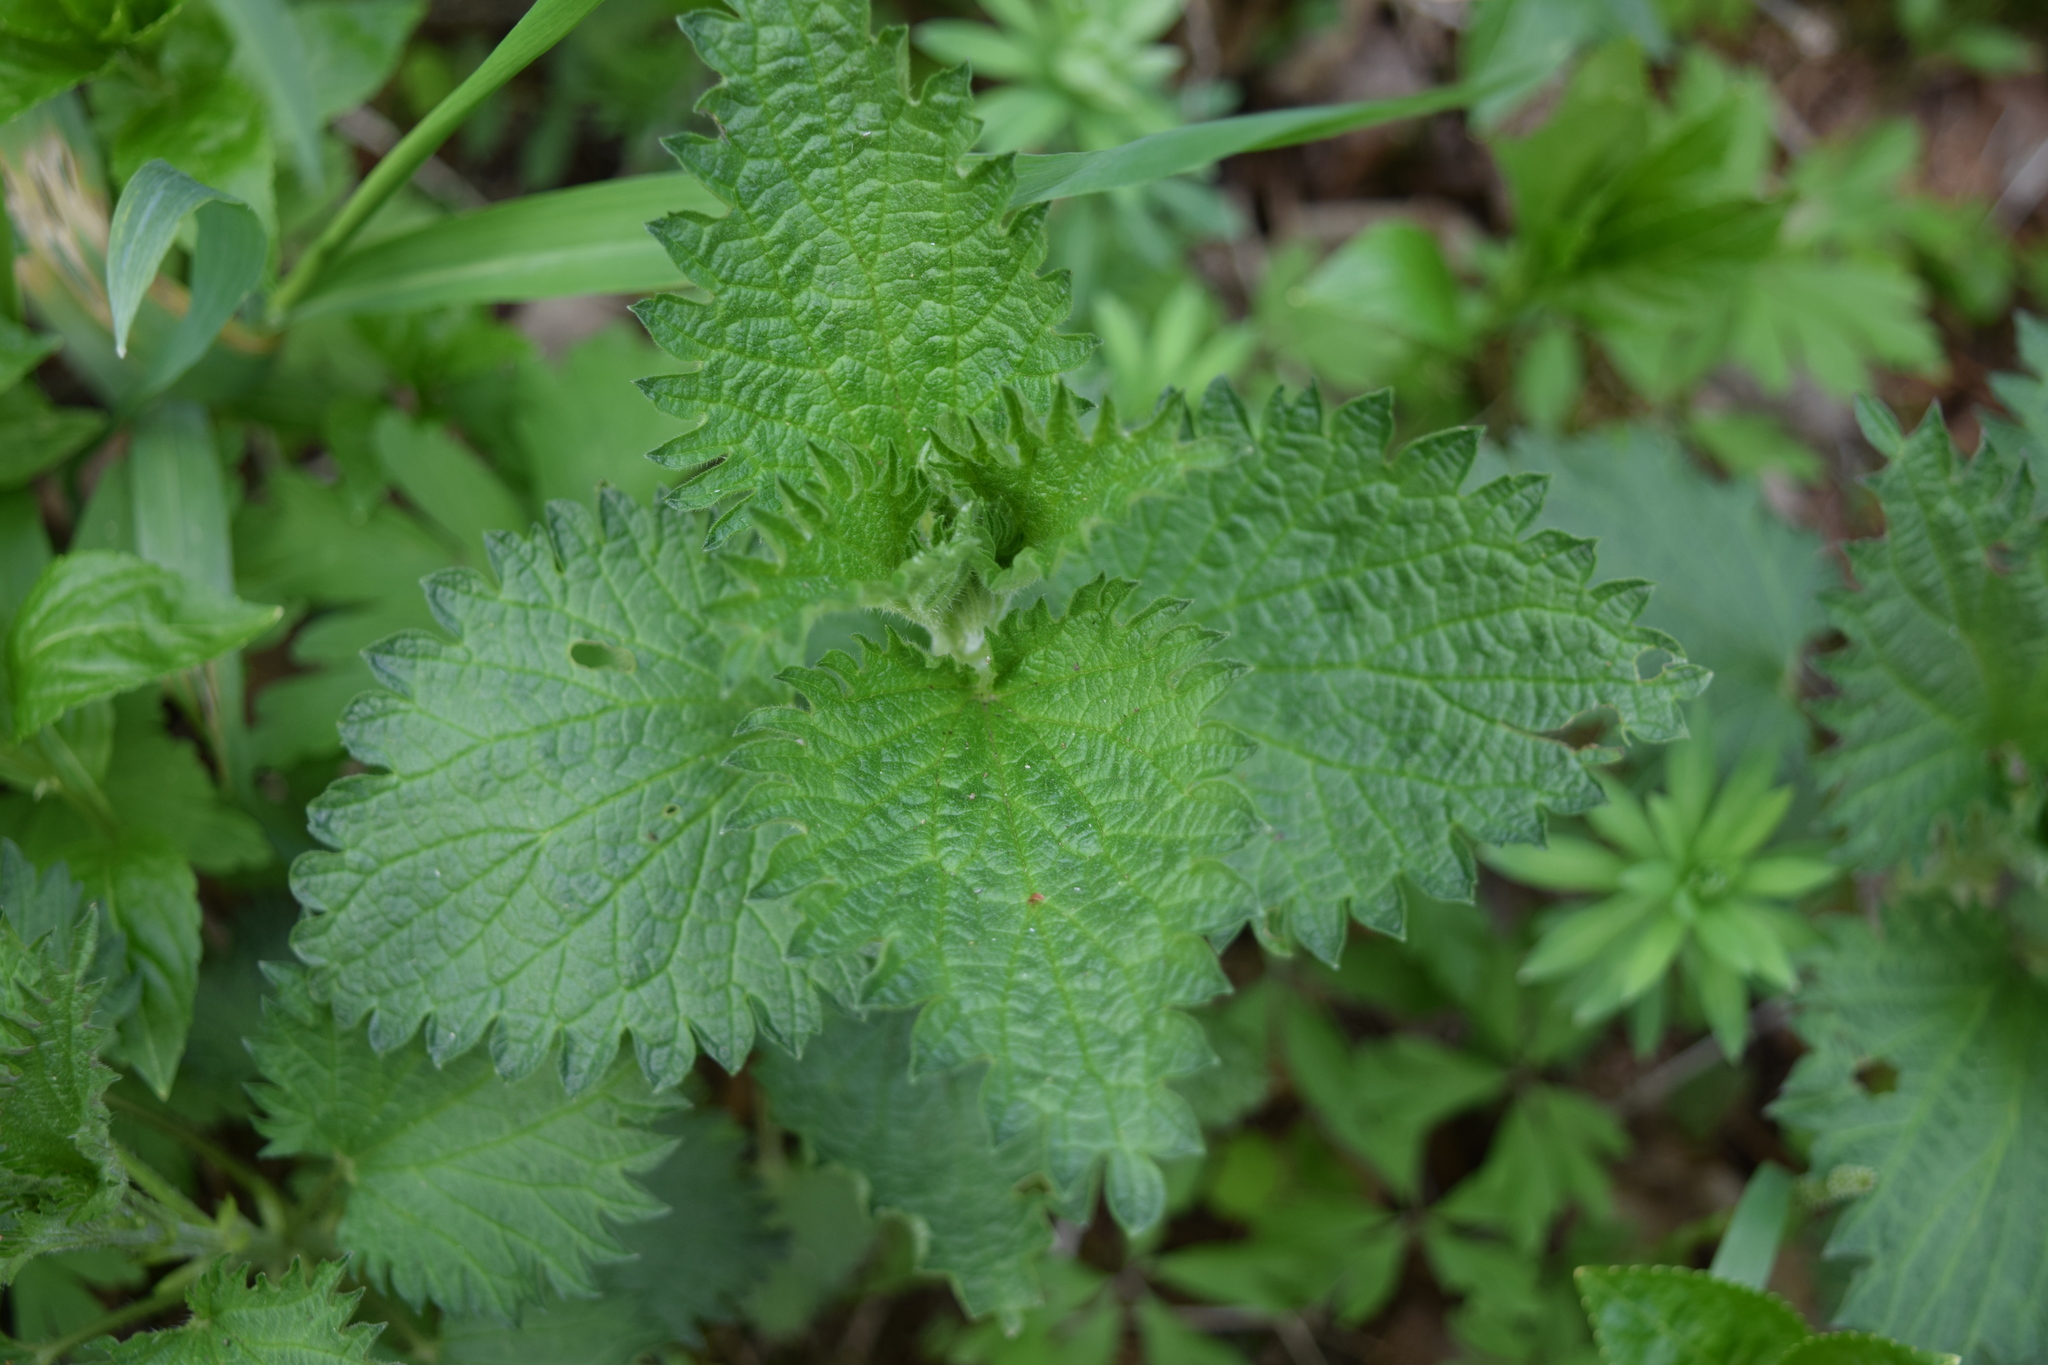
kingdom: Plantae
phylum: Tracheophyta
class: Magnoliopsida
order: Rosales
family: Urticaceae
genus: Urtica
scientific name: Urtica dioica
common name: Common nettle
